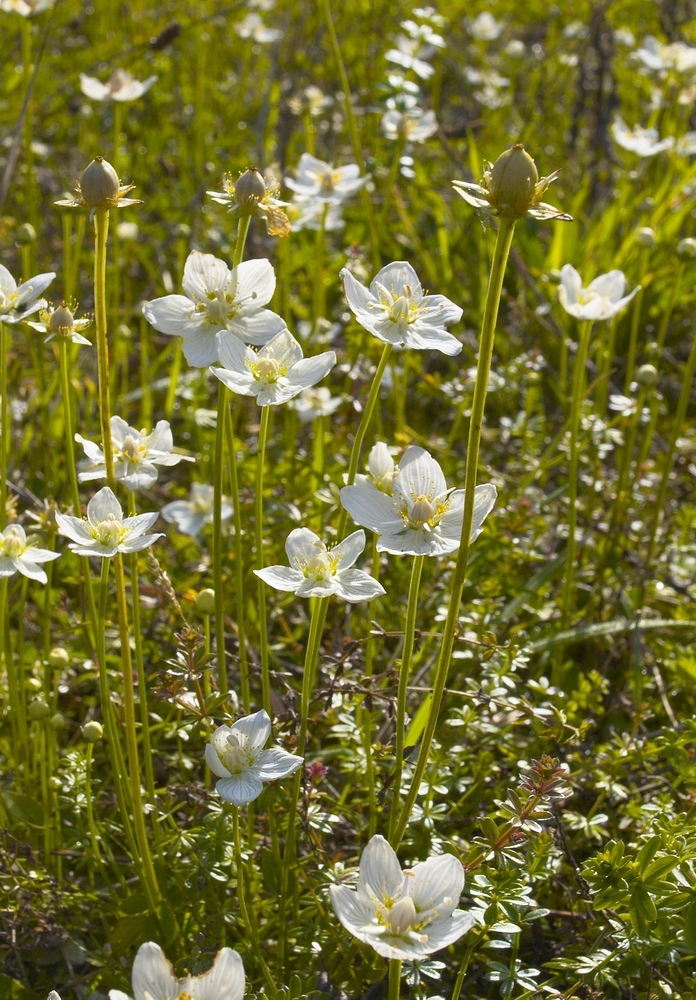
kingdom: Plantae
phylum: Tracheophyta
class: Magnoliopsida
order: Celastrales
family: Parnassiaceae
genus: Parnassia
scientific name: Parnassia palustris
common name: Grass-of-parnassus
